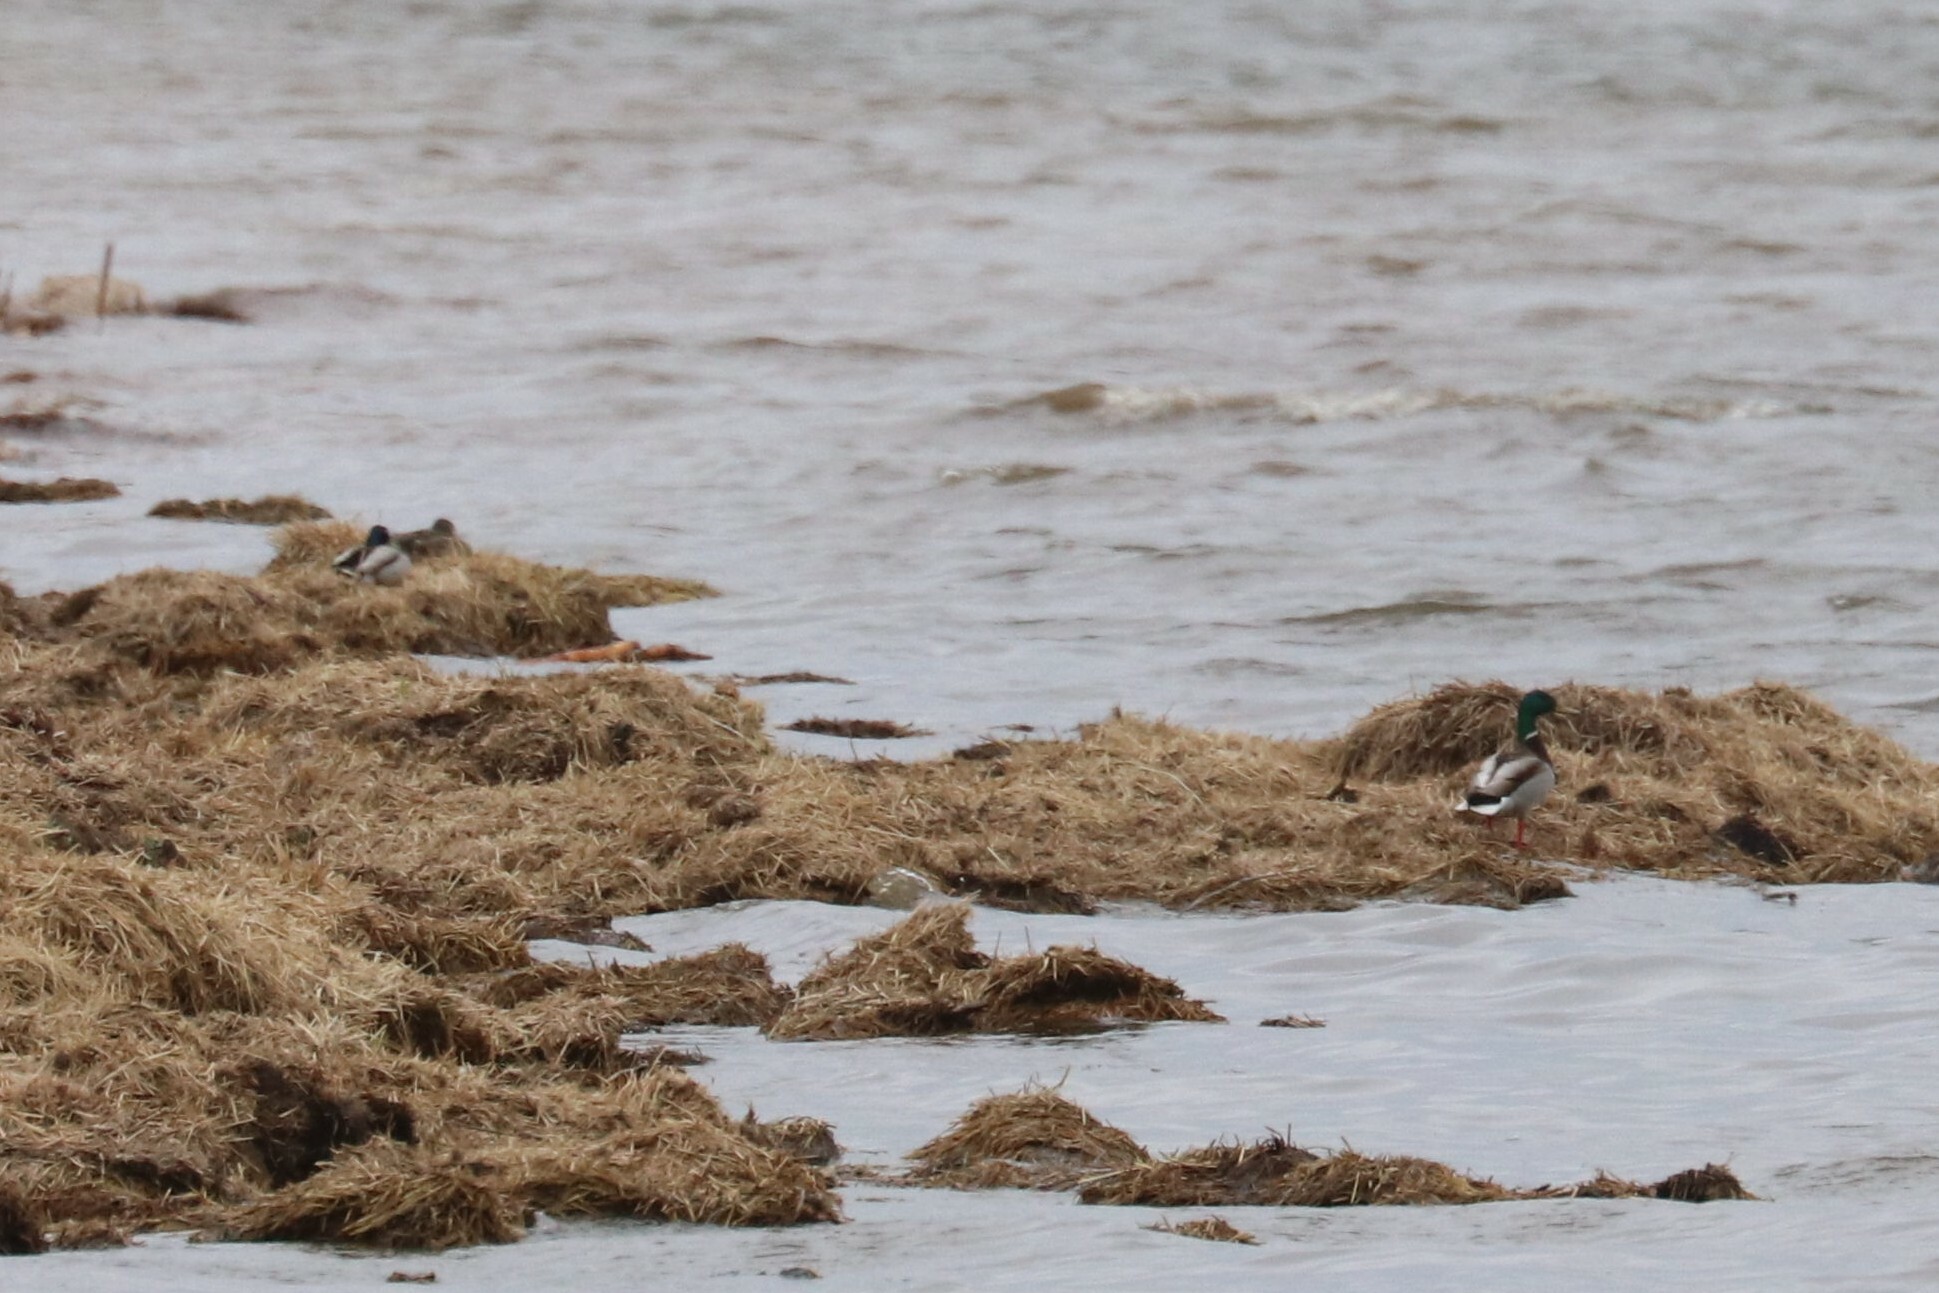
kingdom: Animalia
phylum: Chordata
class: Aves
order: Anseriformes
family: Anatidae
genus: Anas
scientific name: Anas platyrhynchos
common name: Mallard
